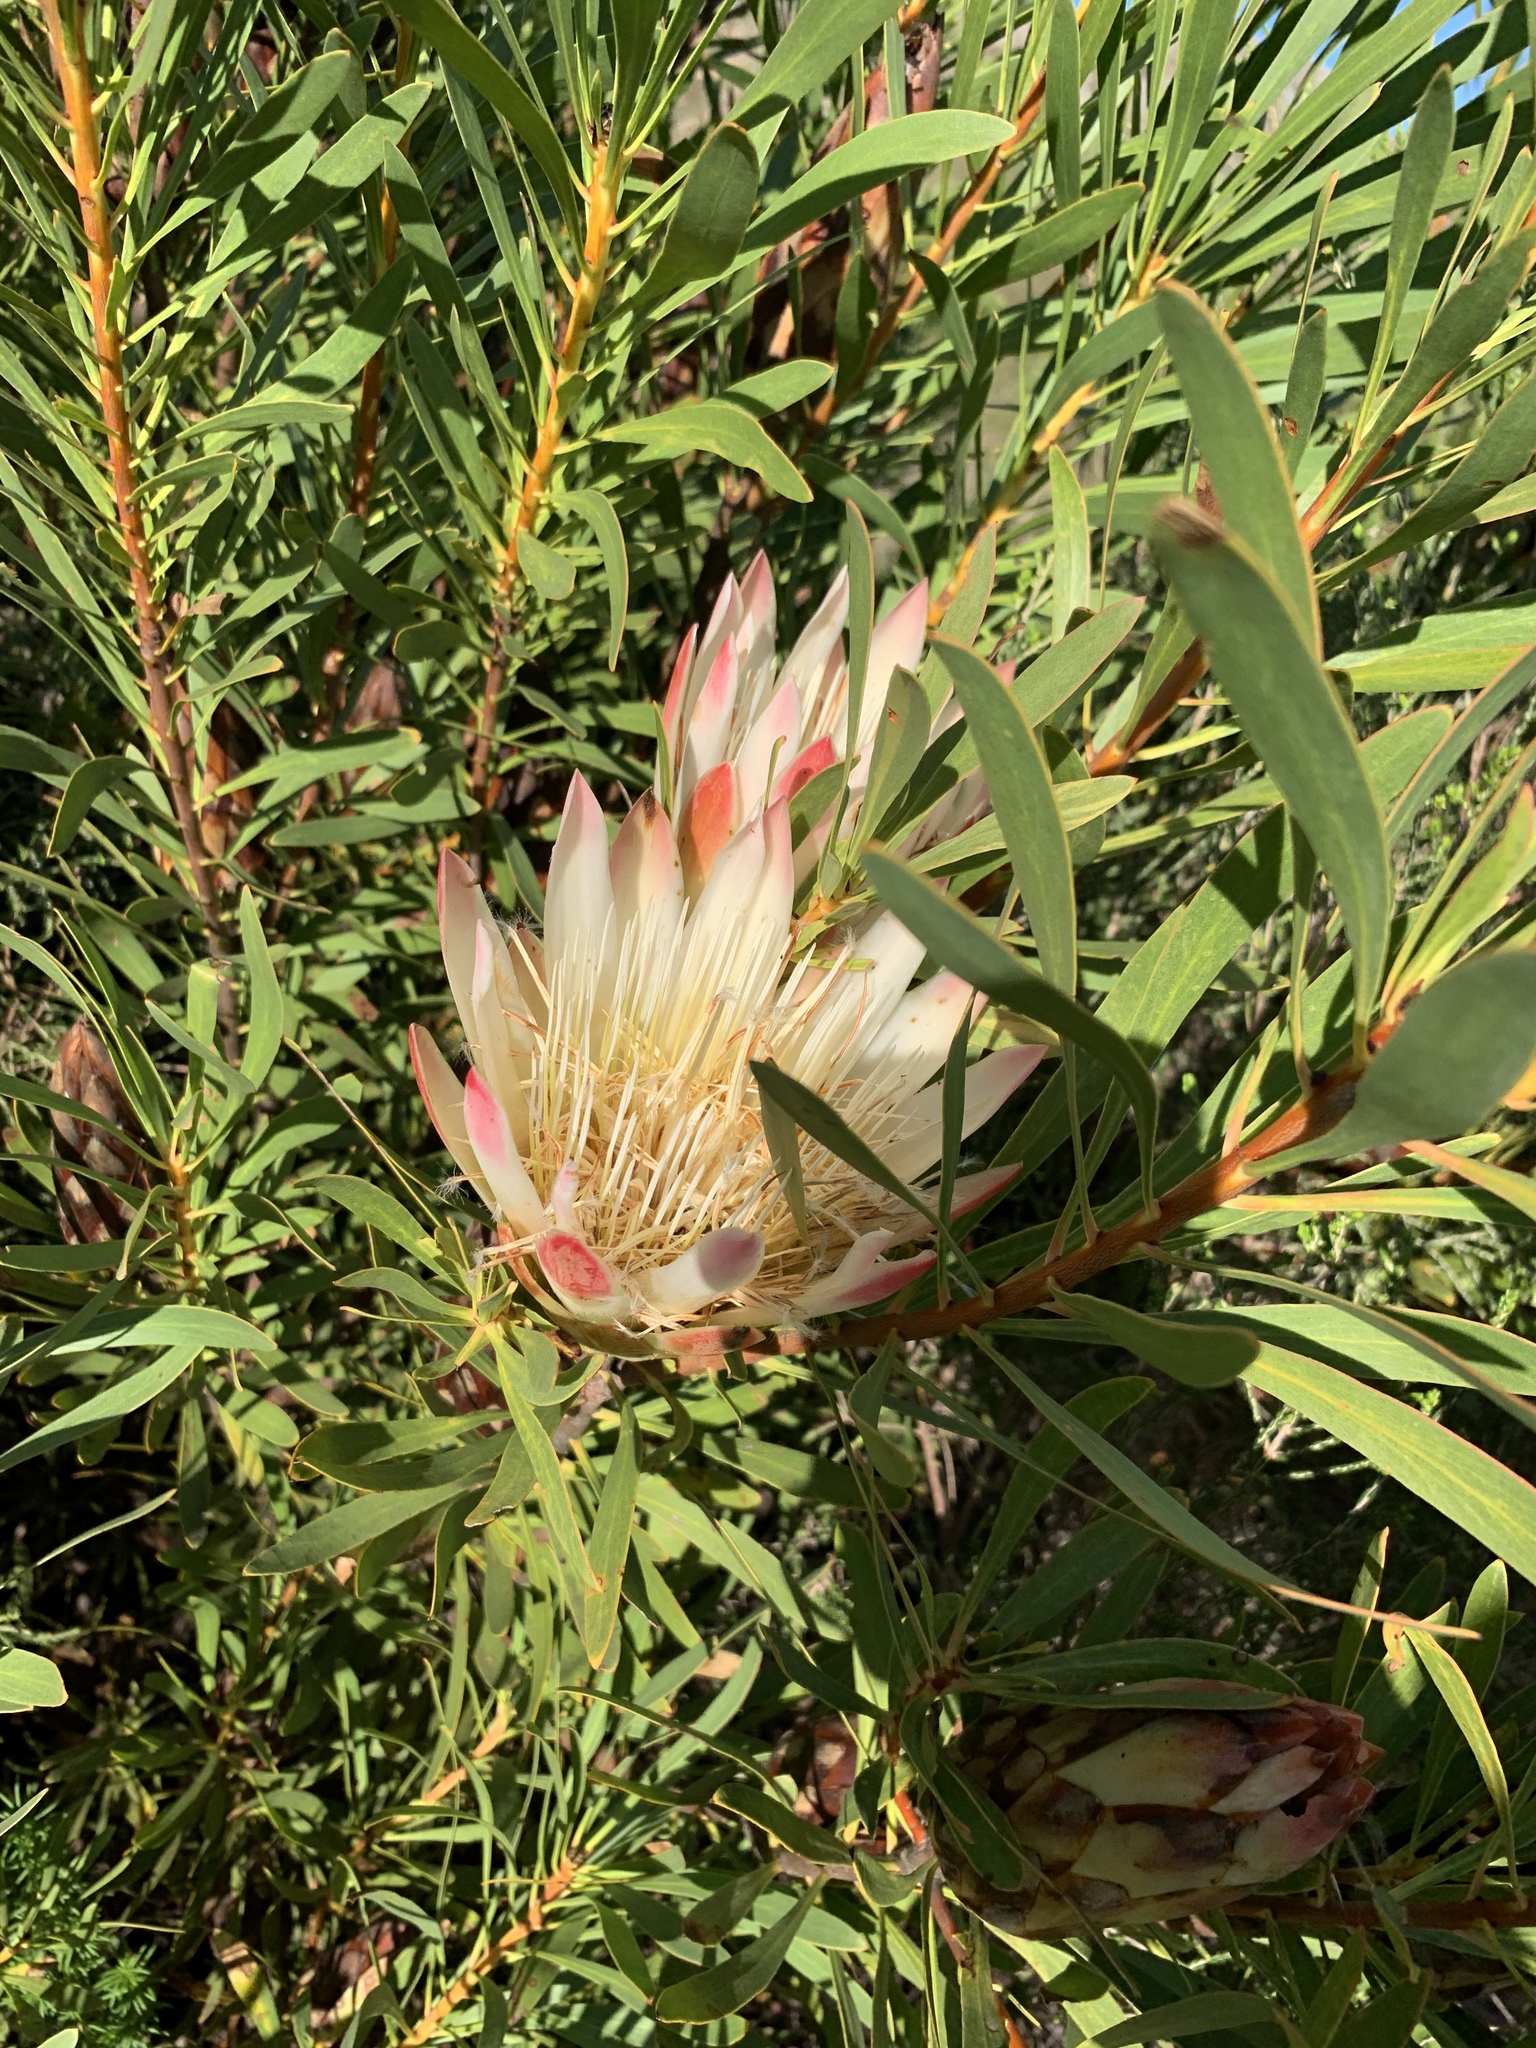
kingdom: Plantae
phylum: Tracheophyta
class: Magnoliopsida
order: Proteales
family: Proteaceae
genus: Protea
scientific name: Protea repens
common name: Sugarbush
